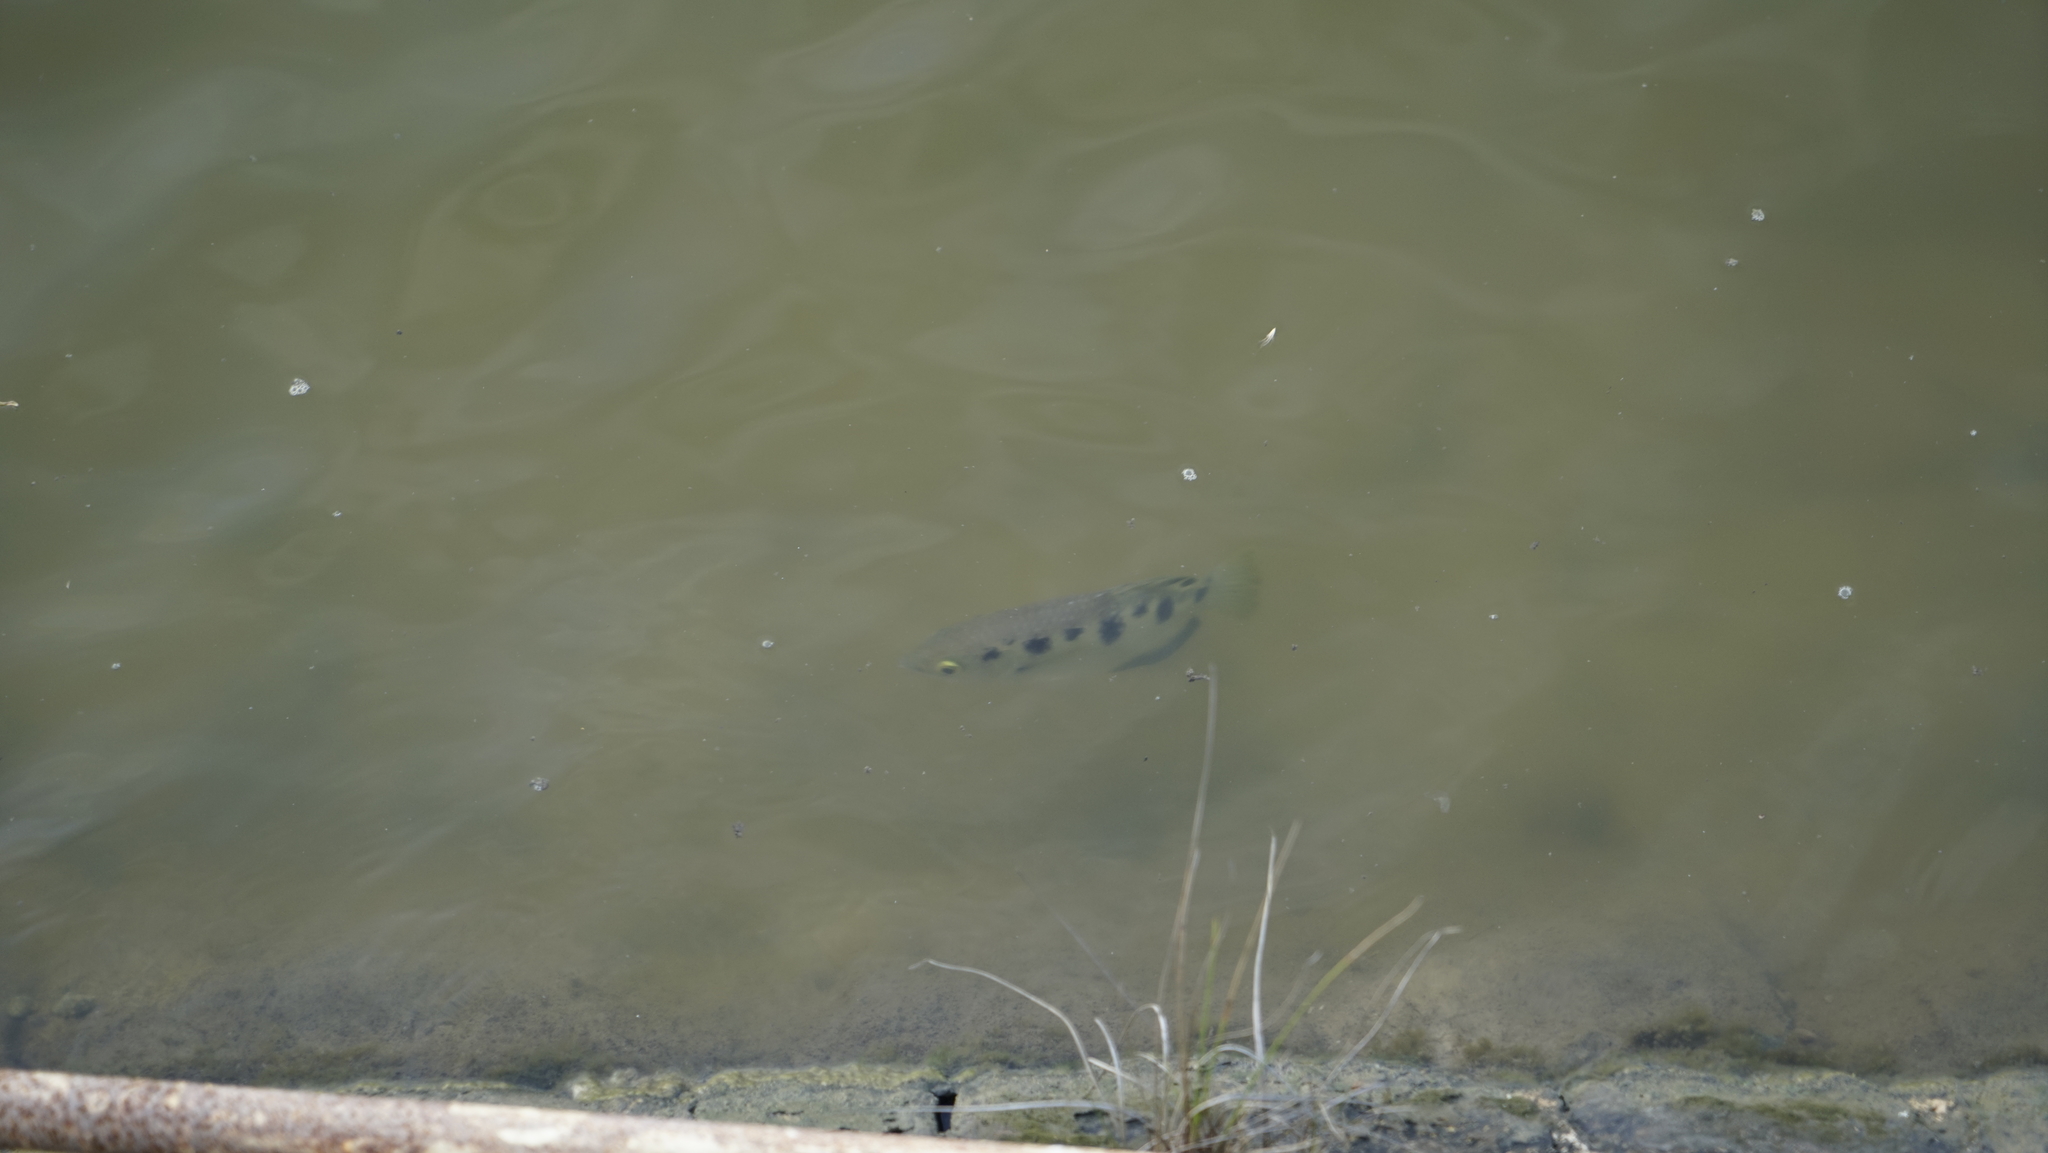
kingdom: Animalia
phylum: Chordata
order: Perciformes
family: Toxotidae
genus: Toxotes
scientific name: Toxotes chatareus
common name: Spotted archerfish
